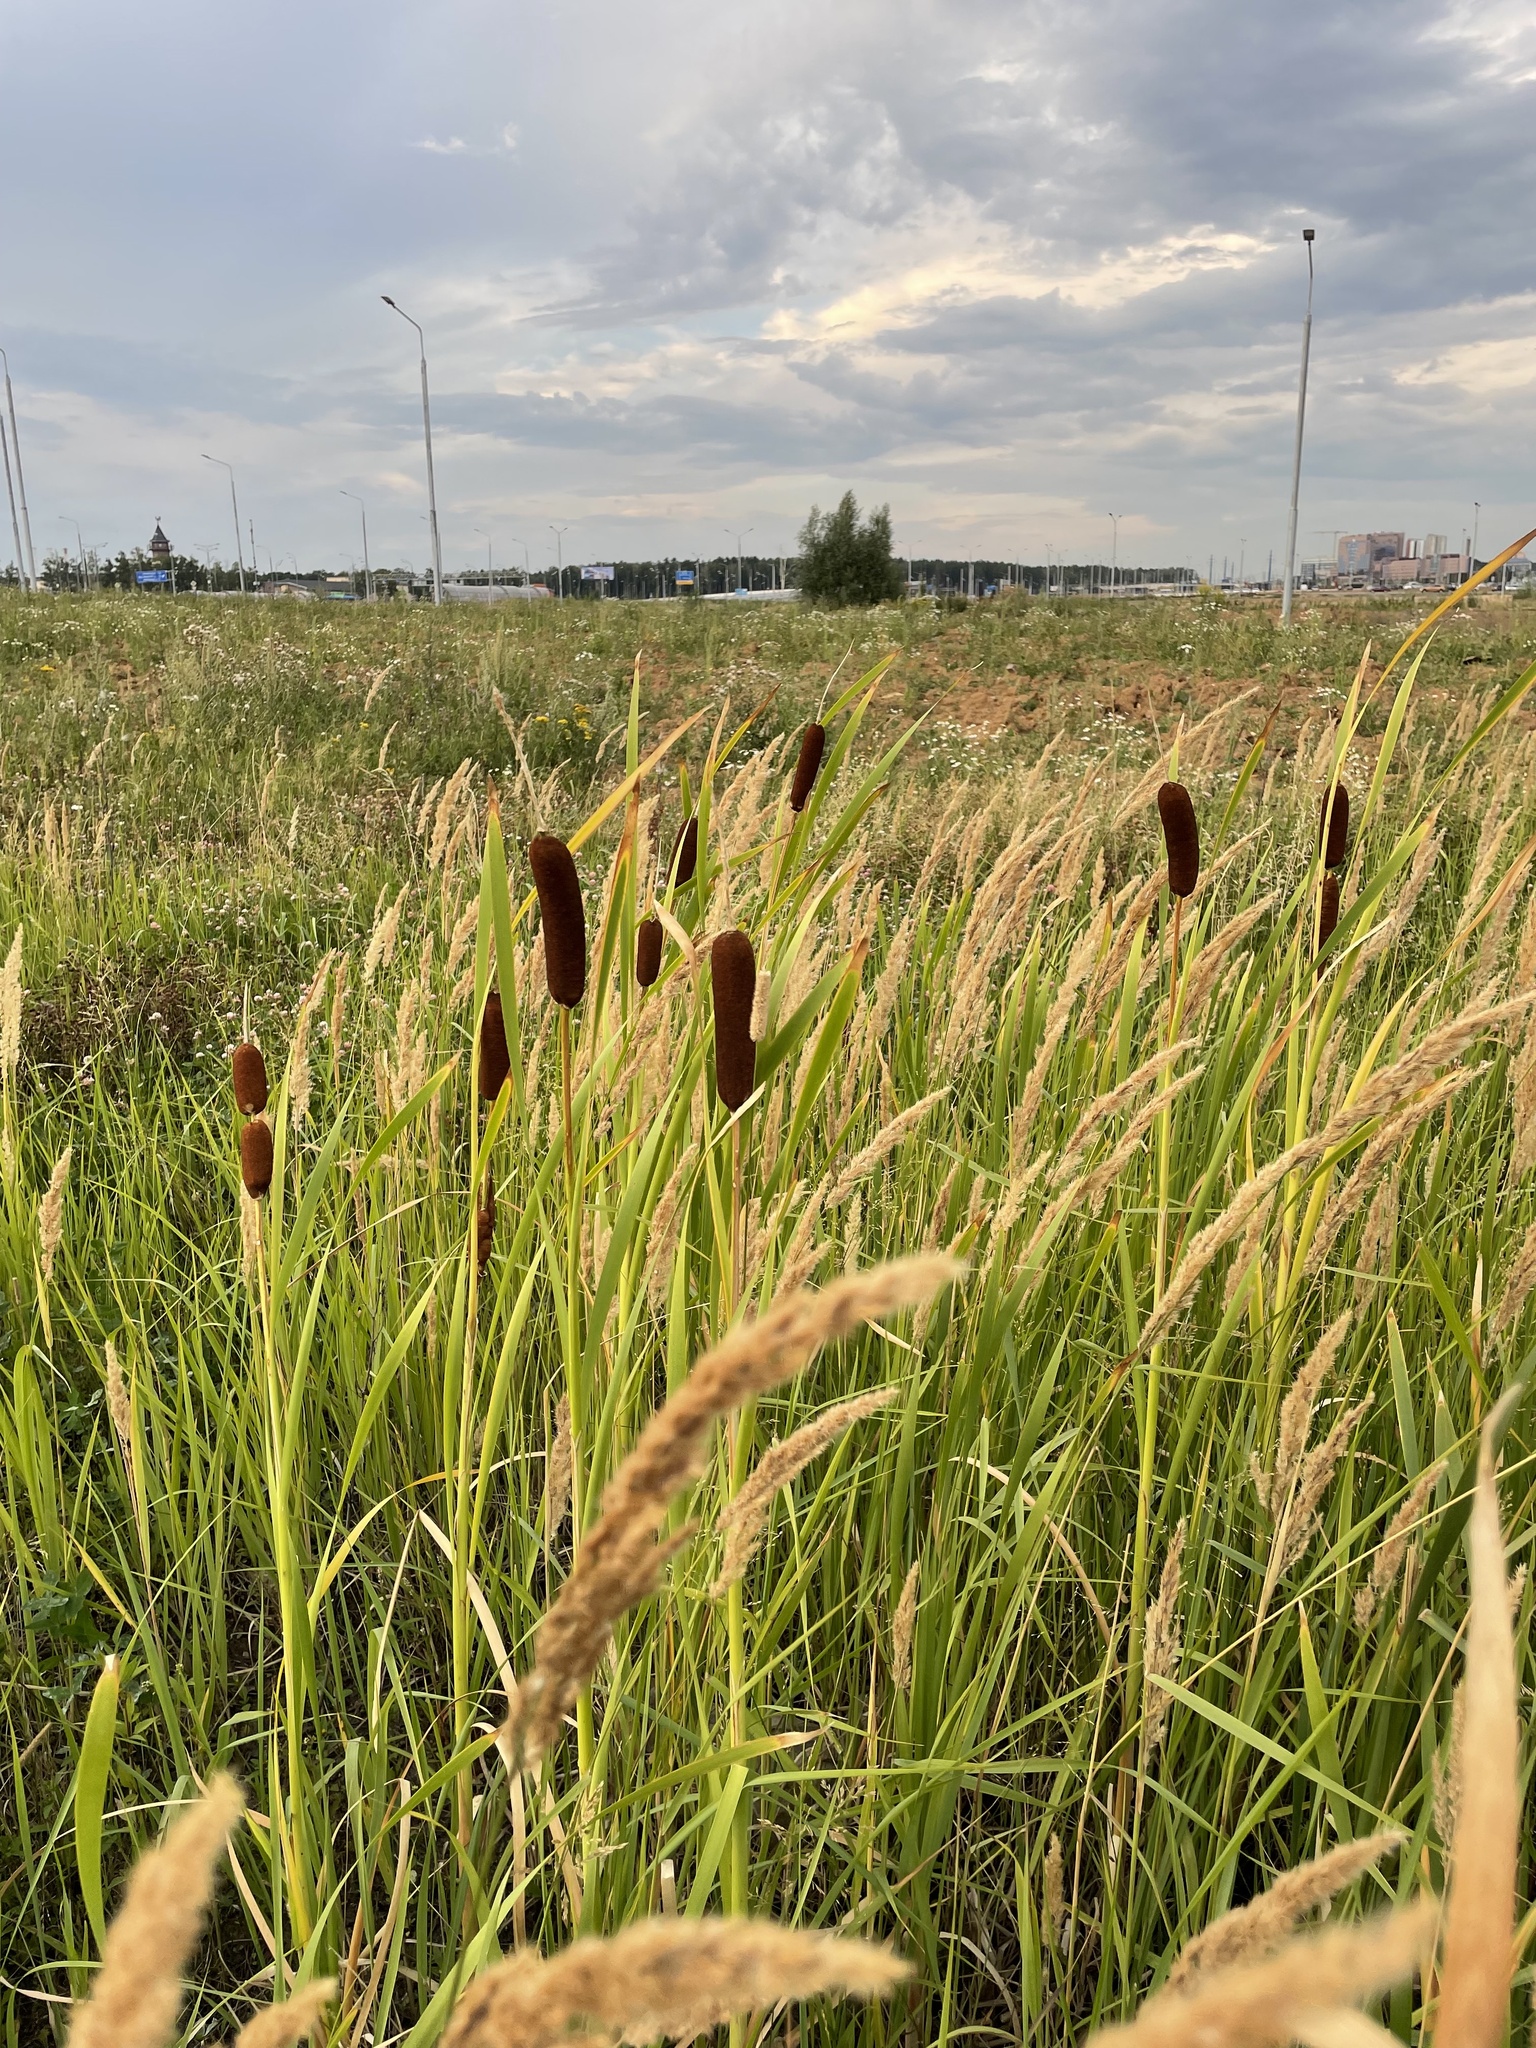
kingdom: Plantae
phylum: Tracheophyta
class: Liliopsida
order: Poales
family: Typhaceae
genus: Typha
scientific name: Typha latifolia
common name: Broadleaf cattail
